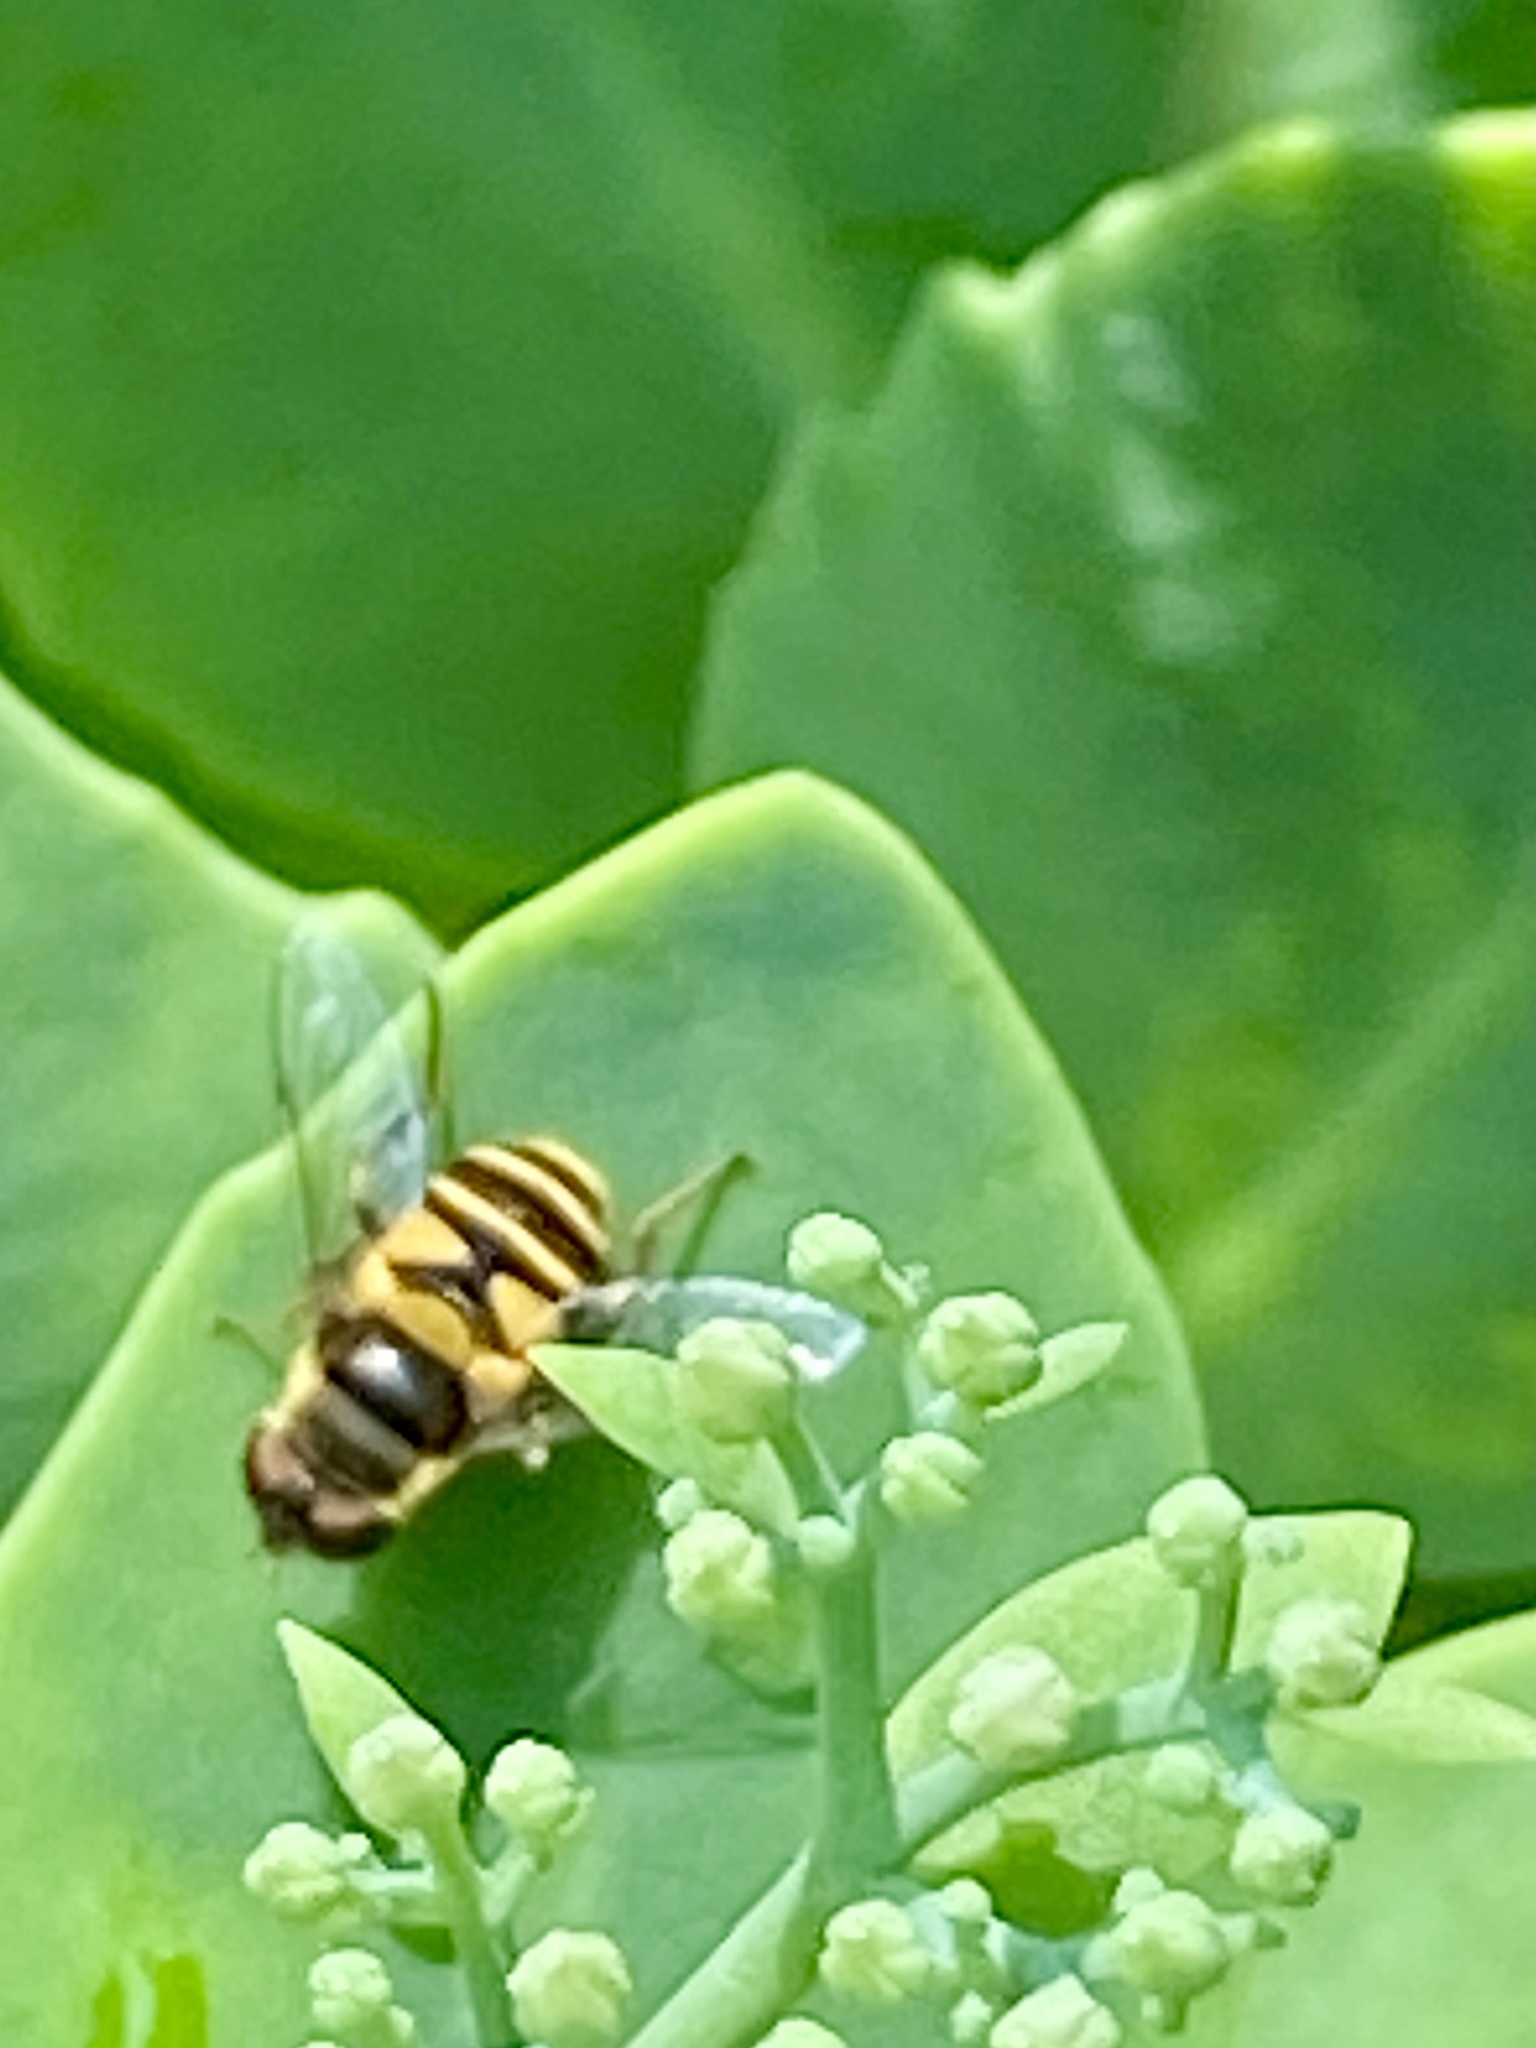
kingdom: Animalia
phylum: Arthropoda
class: Insecta
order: Diptera
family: Syrphidae
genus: Eristalis
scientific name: Eristalis transversa
